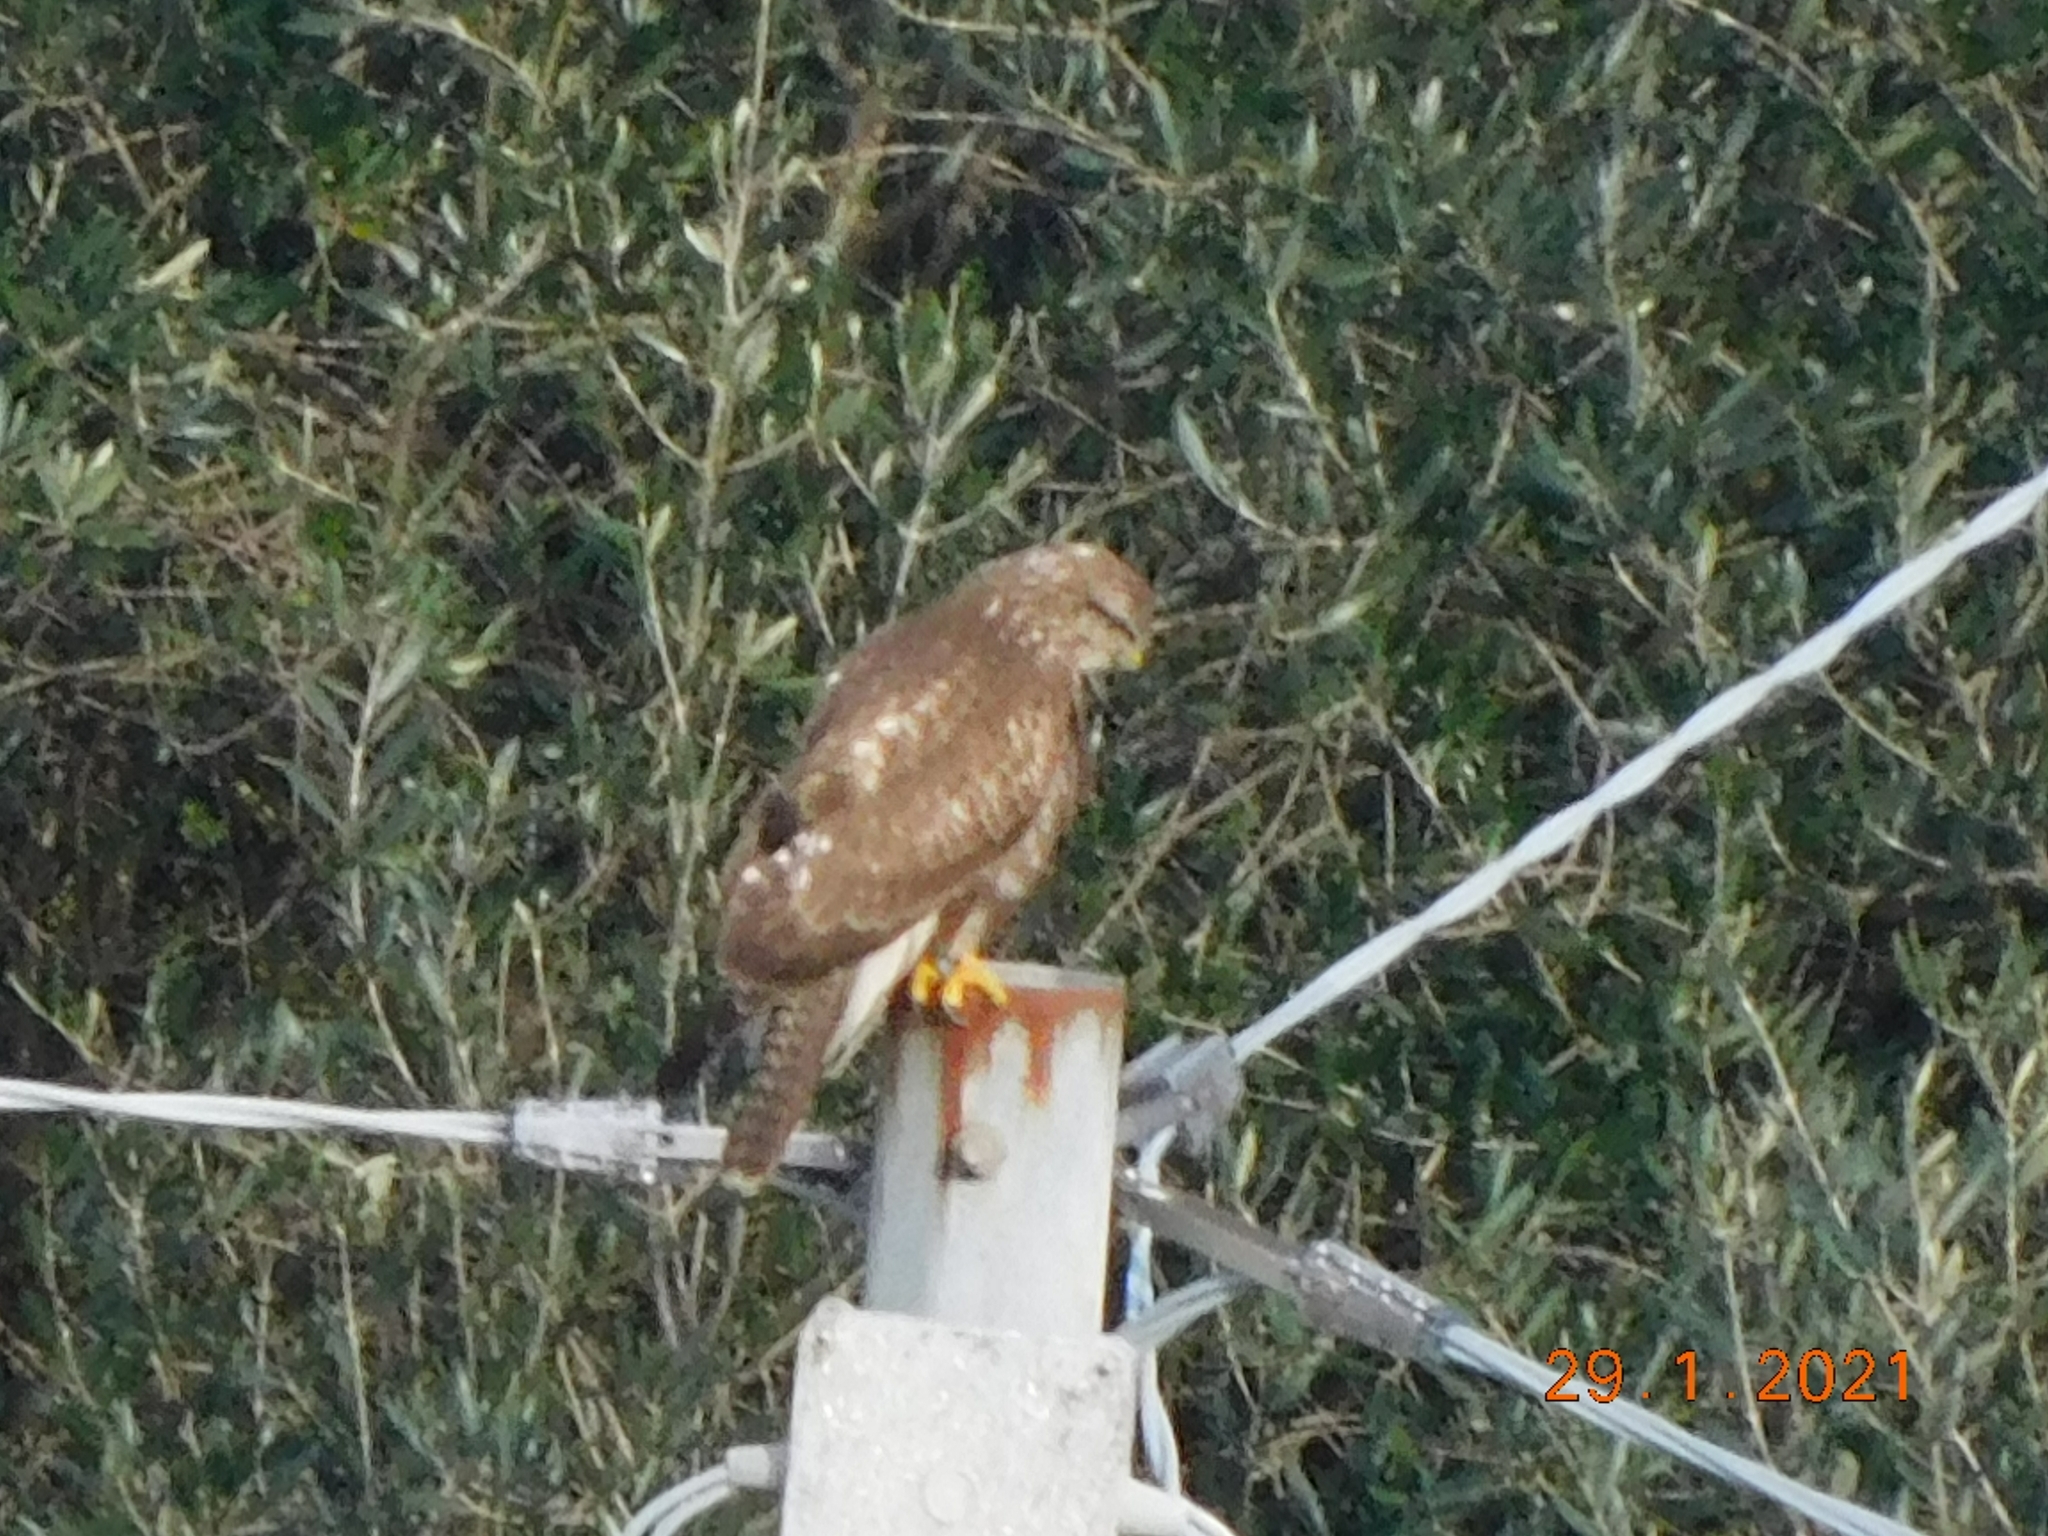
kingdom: Animalia
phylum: Chordata
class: Aves
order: Accipitriformes
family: Accipitridae
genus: Buteo
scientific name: Buteo buteo
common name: Common buzzard
